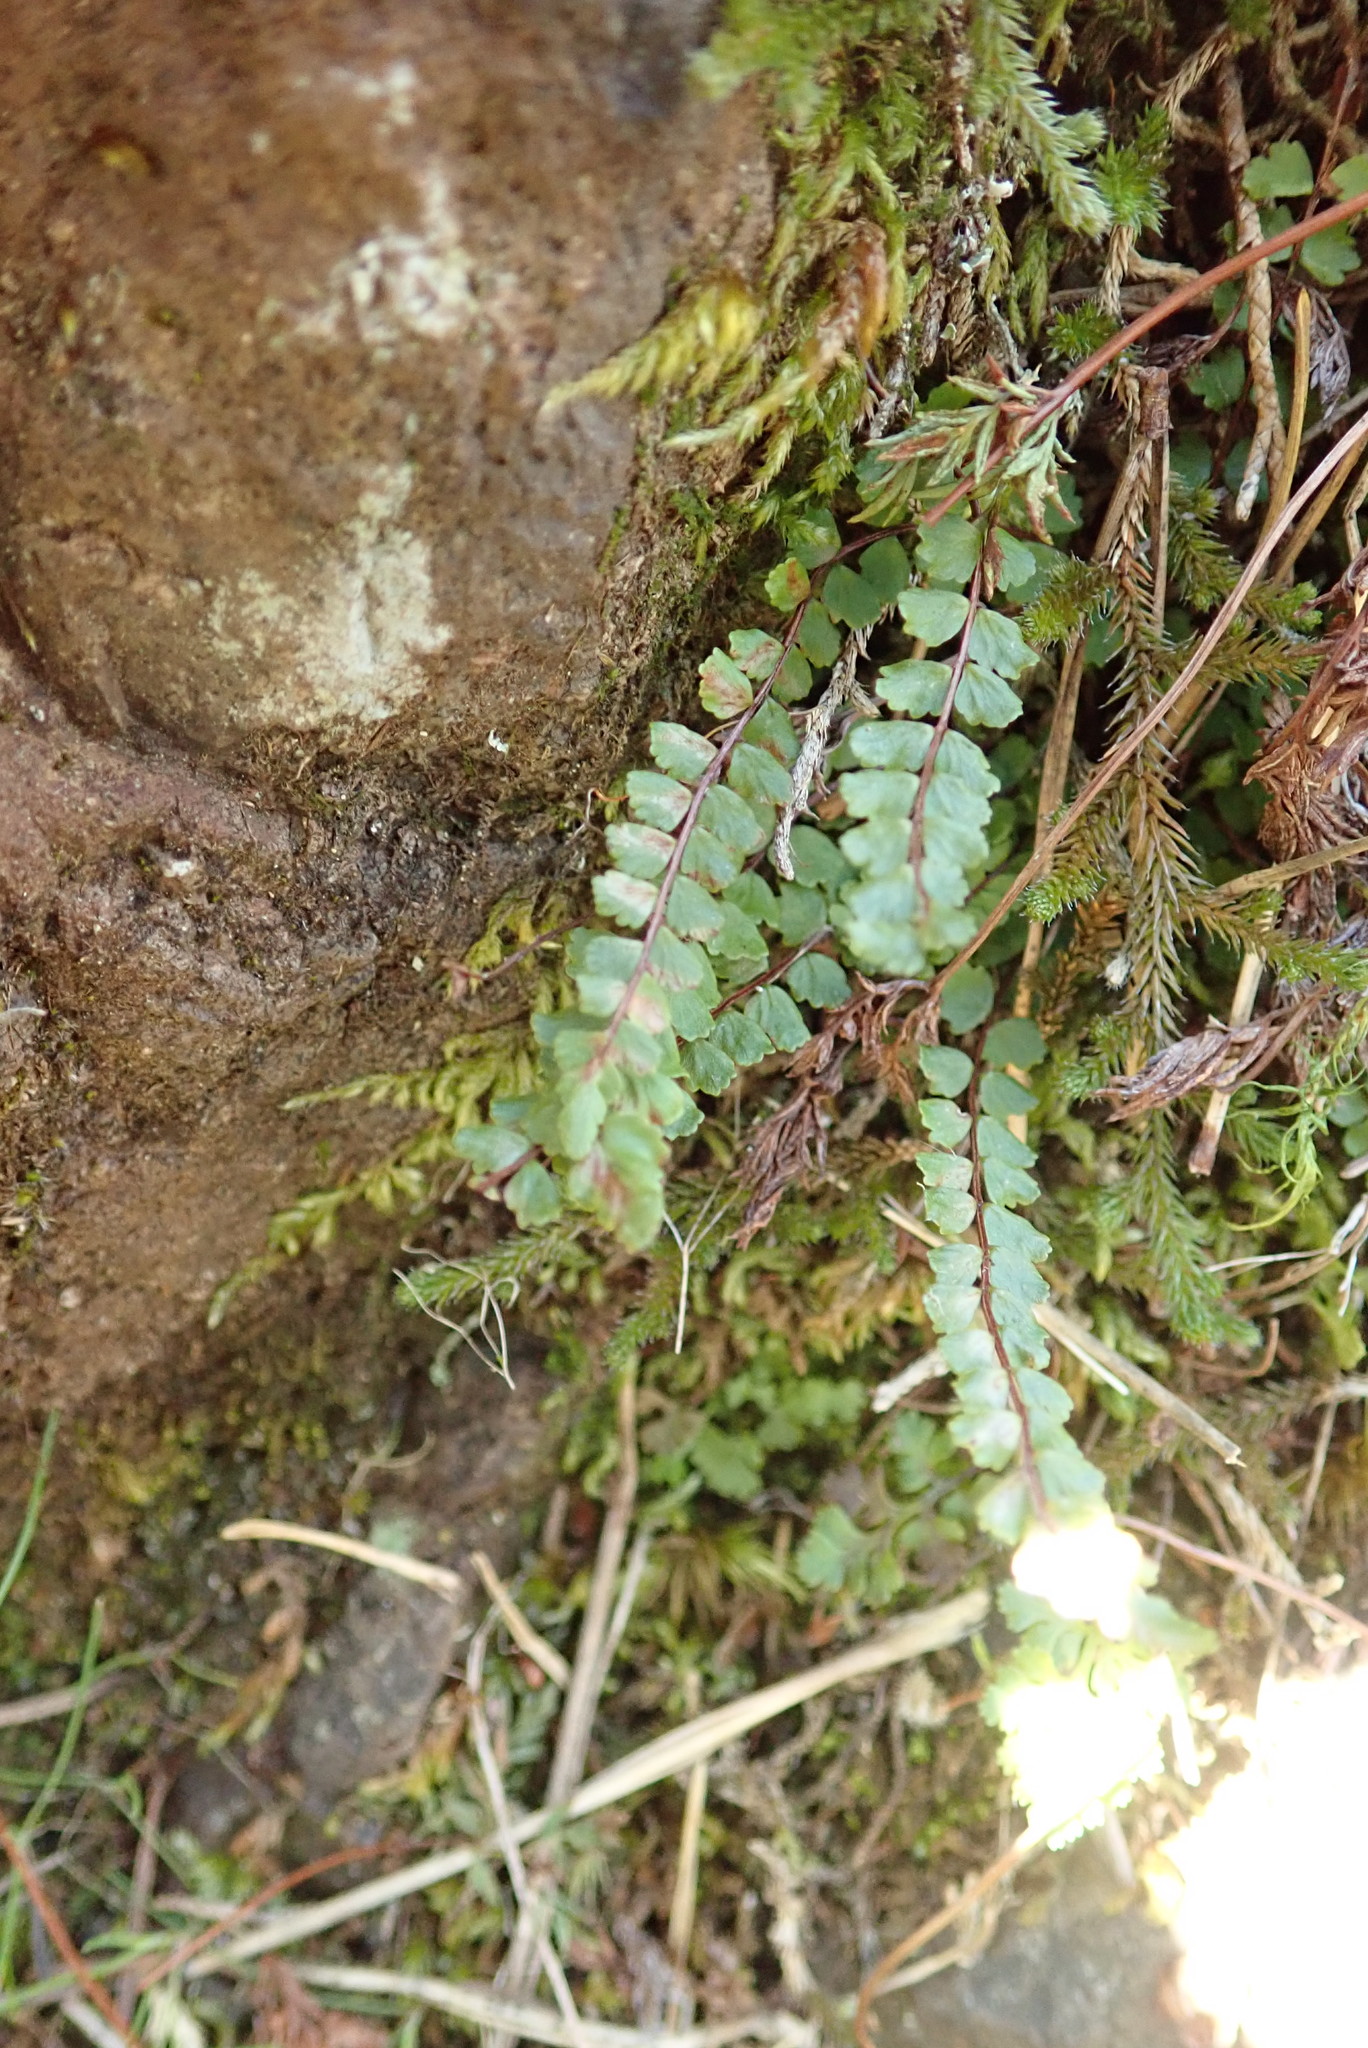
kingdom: Plantae
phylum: Tracheophyta
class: Polypodiopsida
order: Polypodiales
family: Aspleniaceae
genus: Asplenium
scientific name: Asplenium trichomanes
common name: Maidenhair spleenwort
